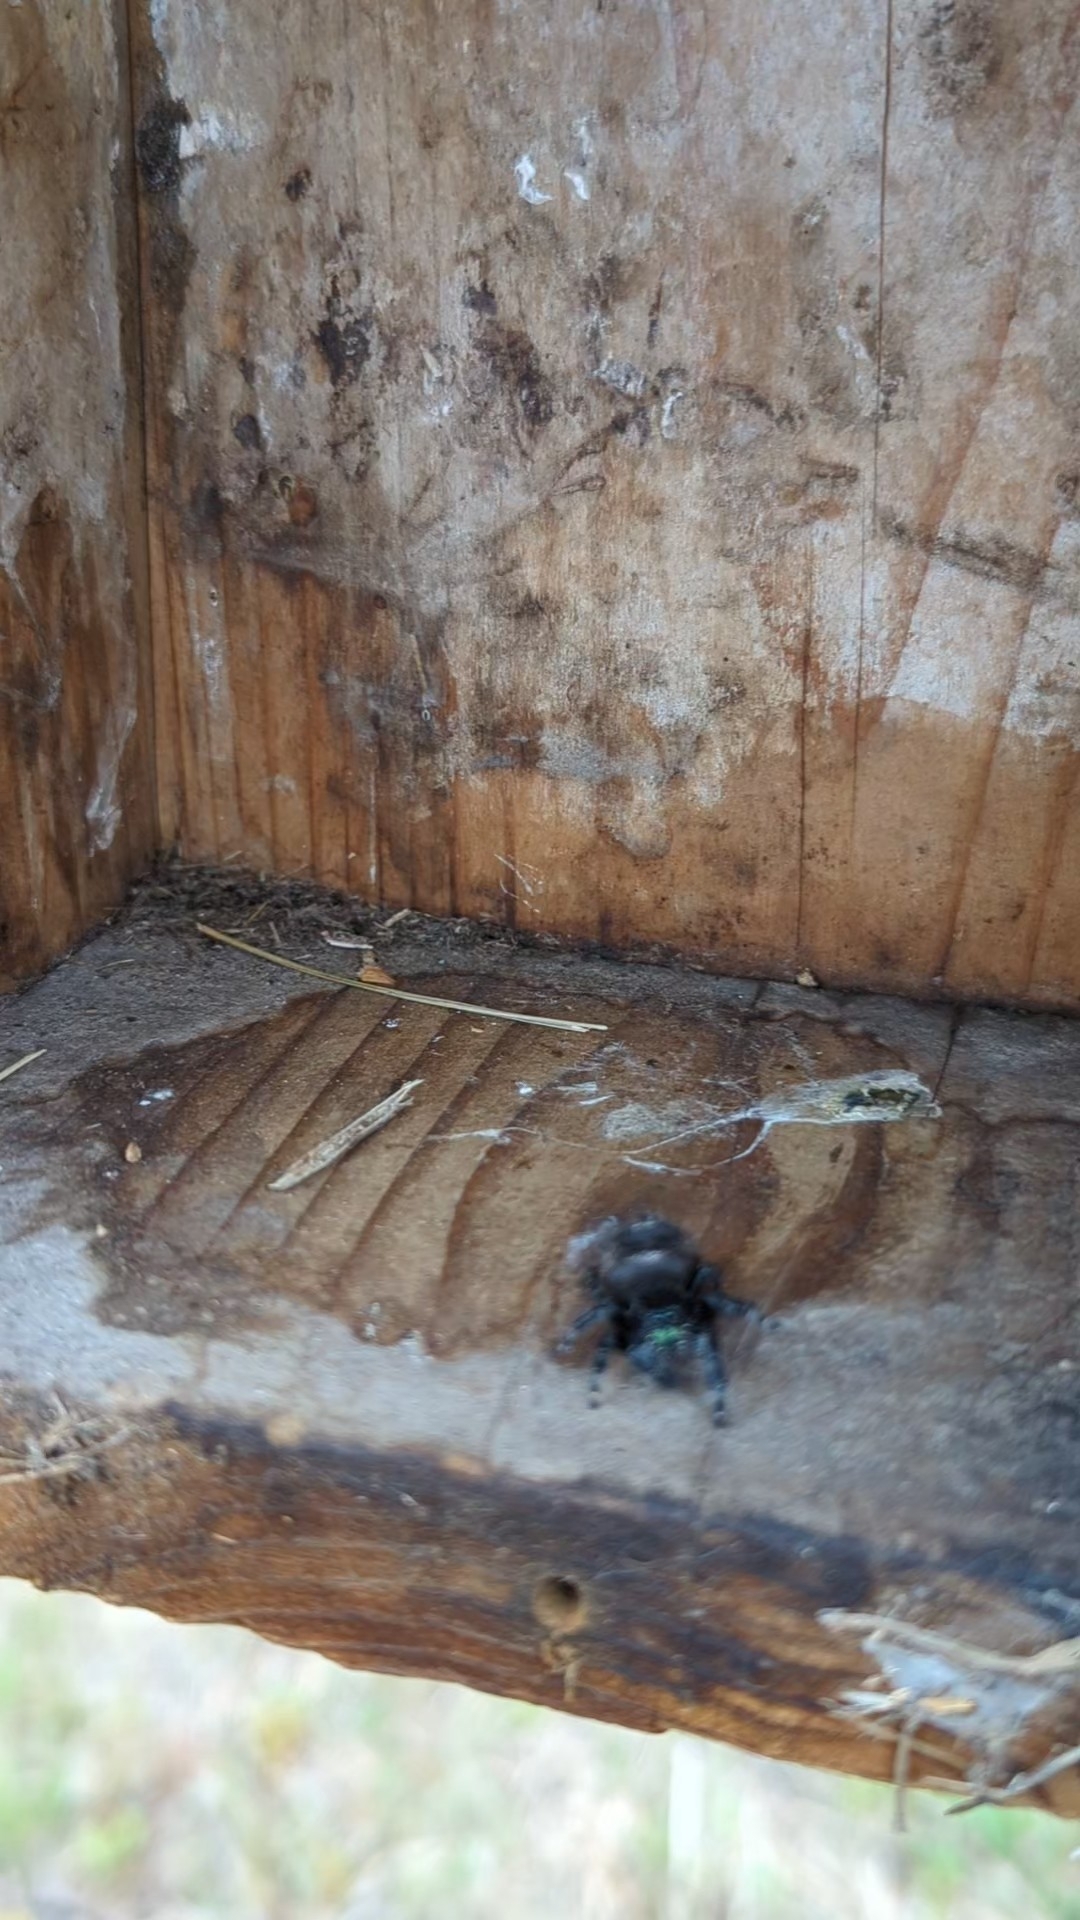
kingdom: Animalia
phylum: Arthropoda
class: Arachnida
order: Araneae
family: Salticidae
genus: Phidippus
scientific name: Phidippus audax
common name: Bold jumper
